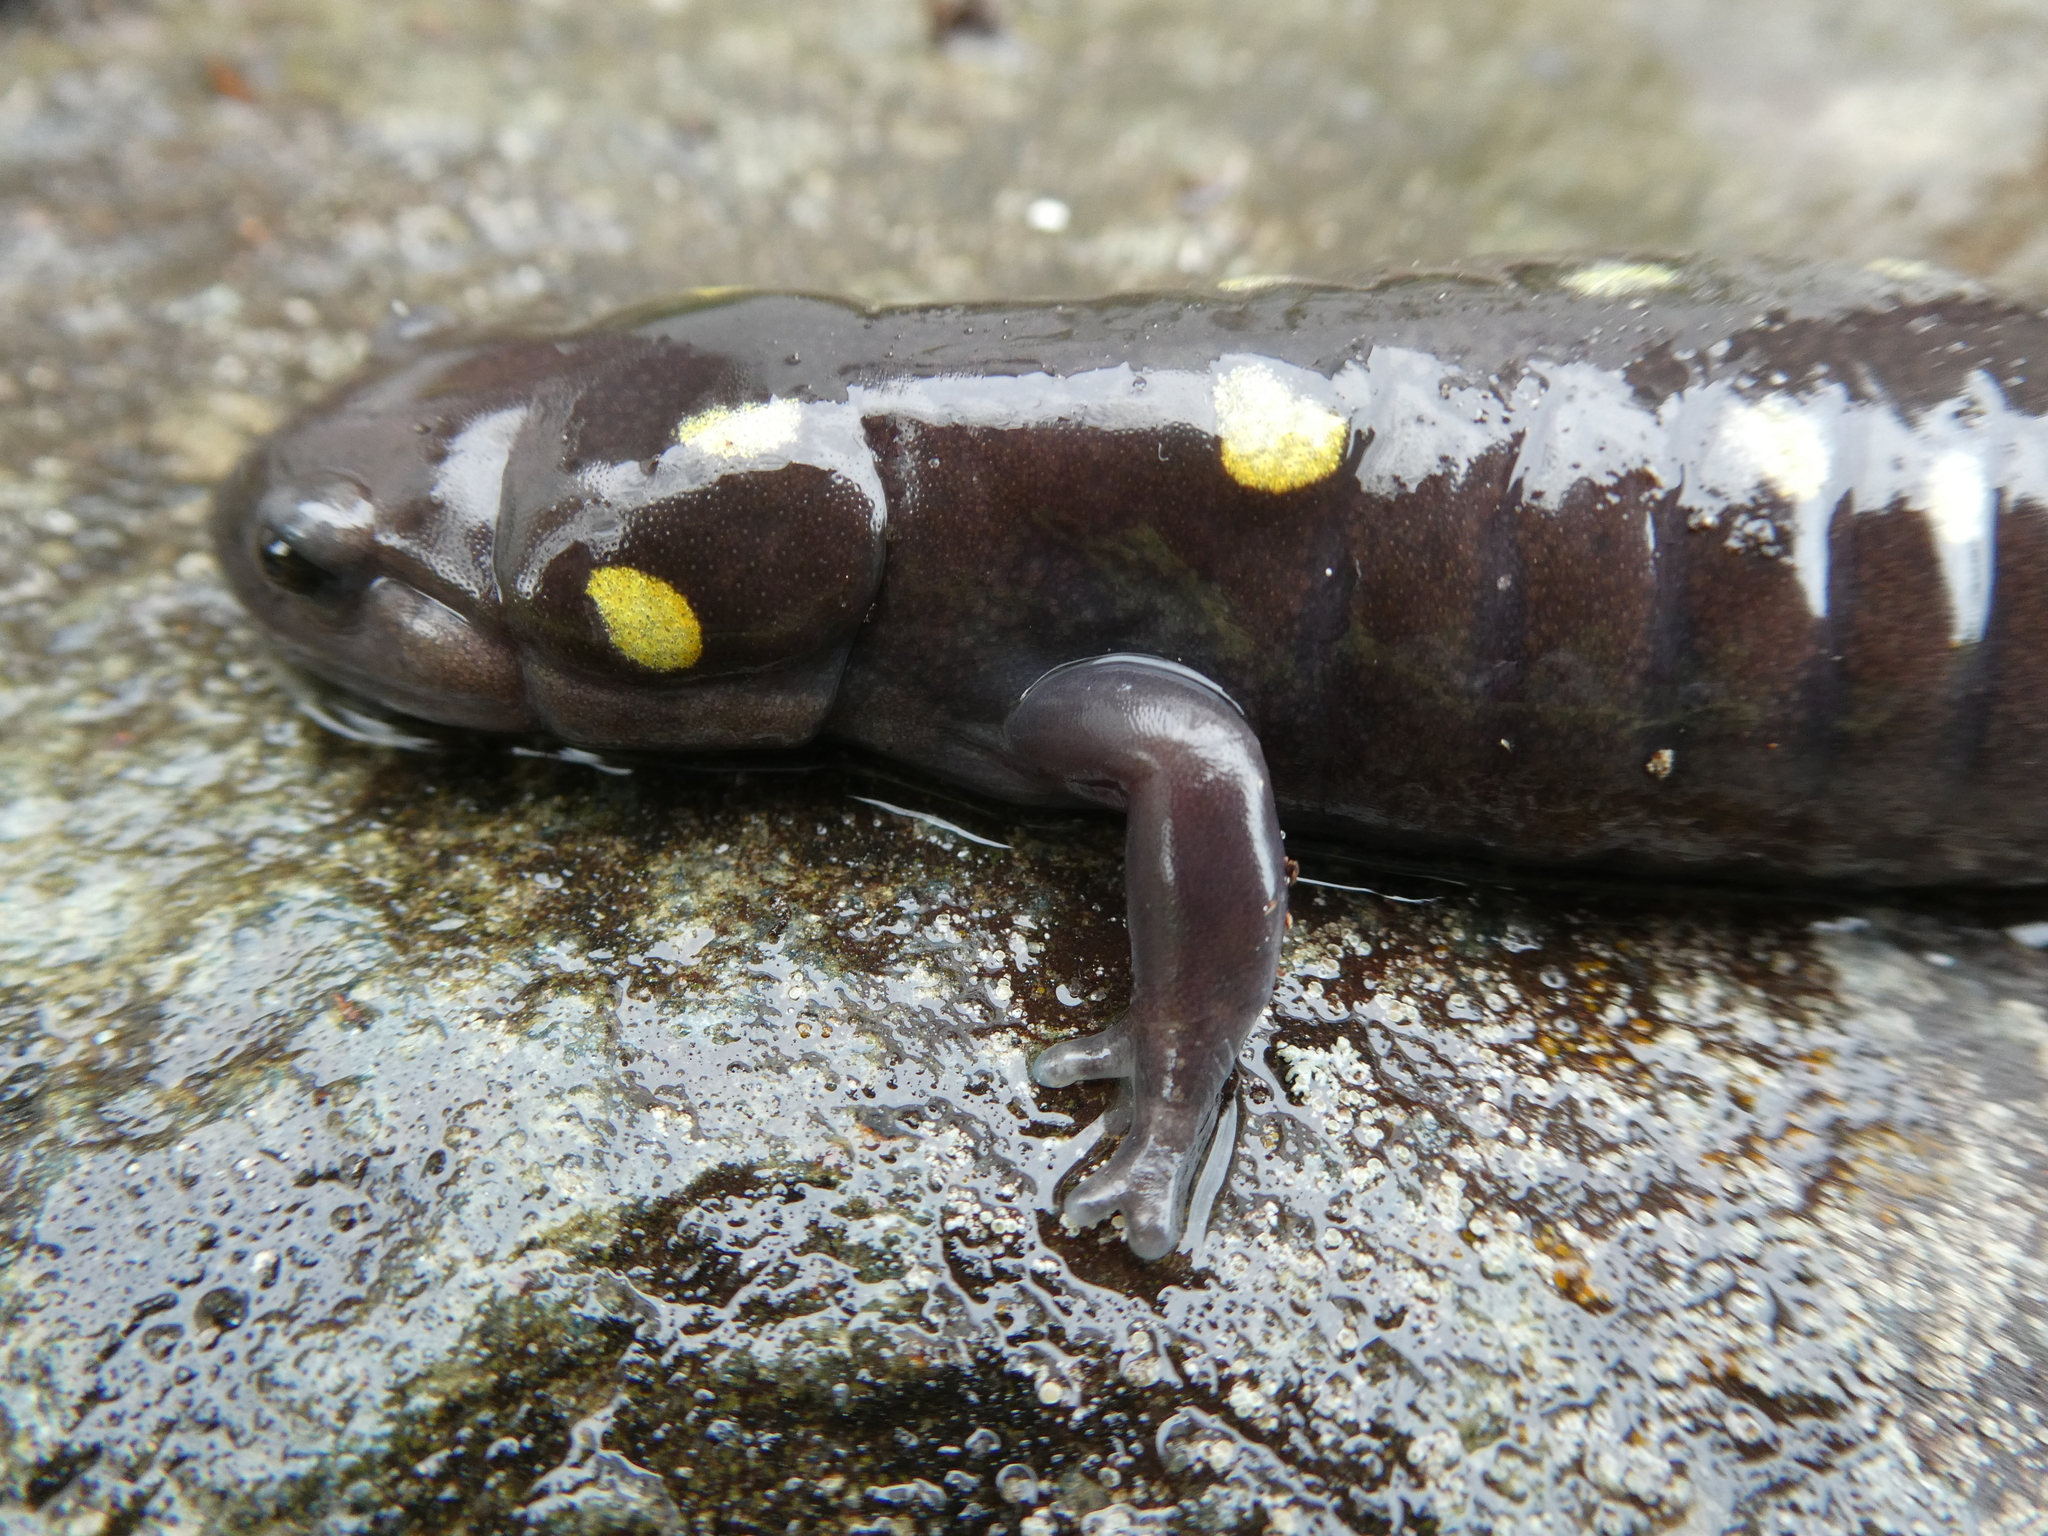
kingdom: Animalia
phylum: Chordata
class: Amphibia
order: Caudata
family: Ambystomatidae
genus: Ambystoma
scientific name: Ambystoma maculatum
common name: Spotted salamander
